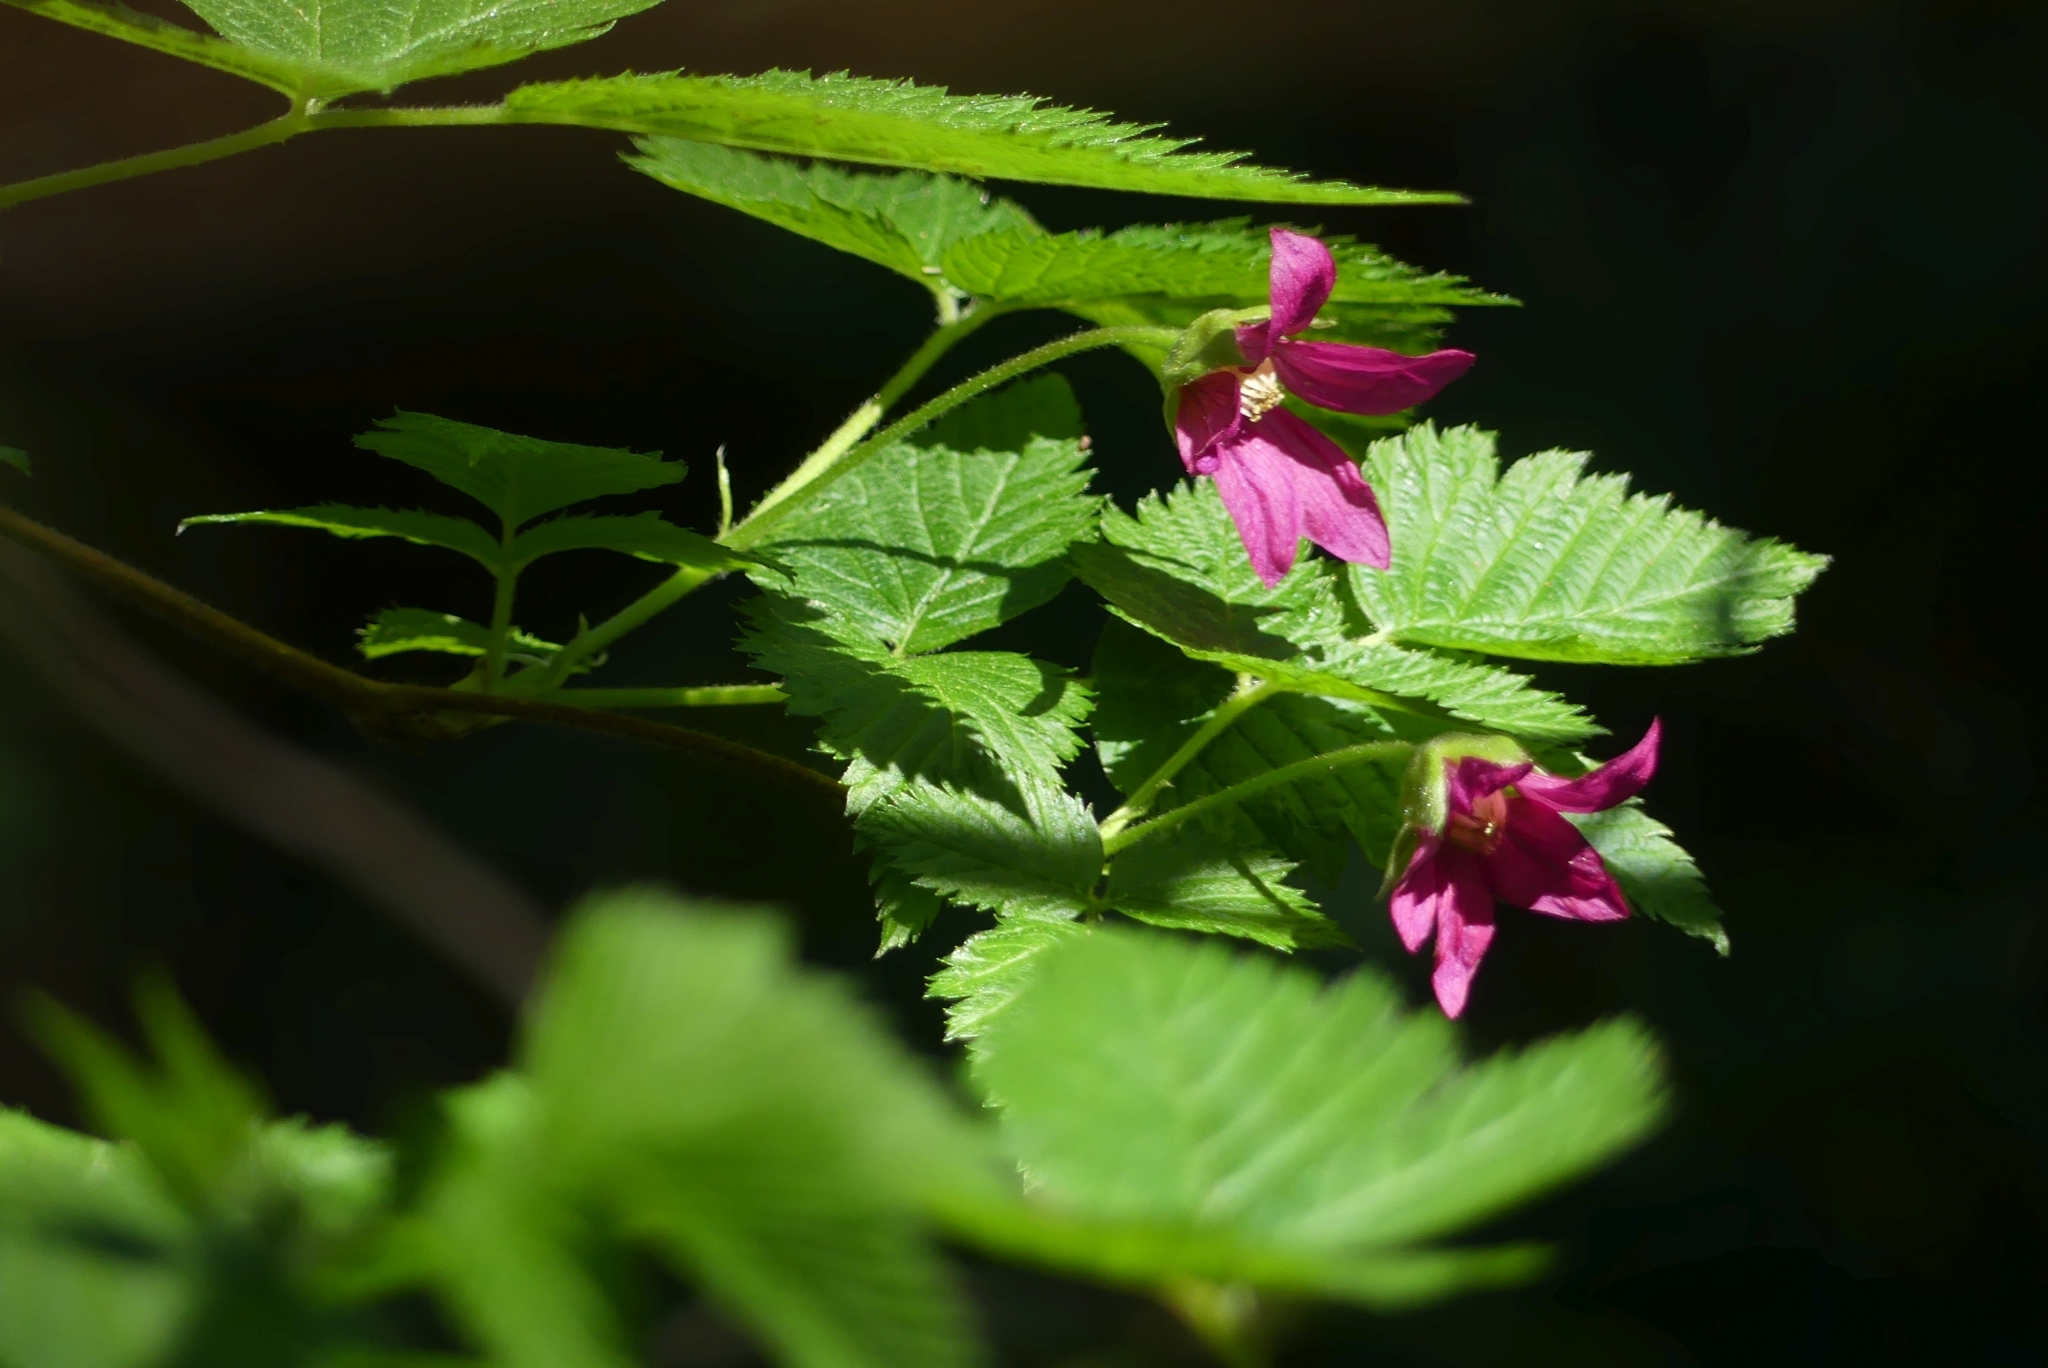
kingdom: Plantae
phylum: Tracheophyta
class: Magnoliopsida
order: Rosales
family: Rosaceae
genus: Rubus
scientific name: Rubus spectabilis
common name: Salmonberry
